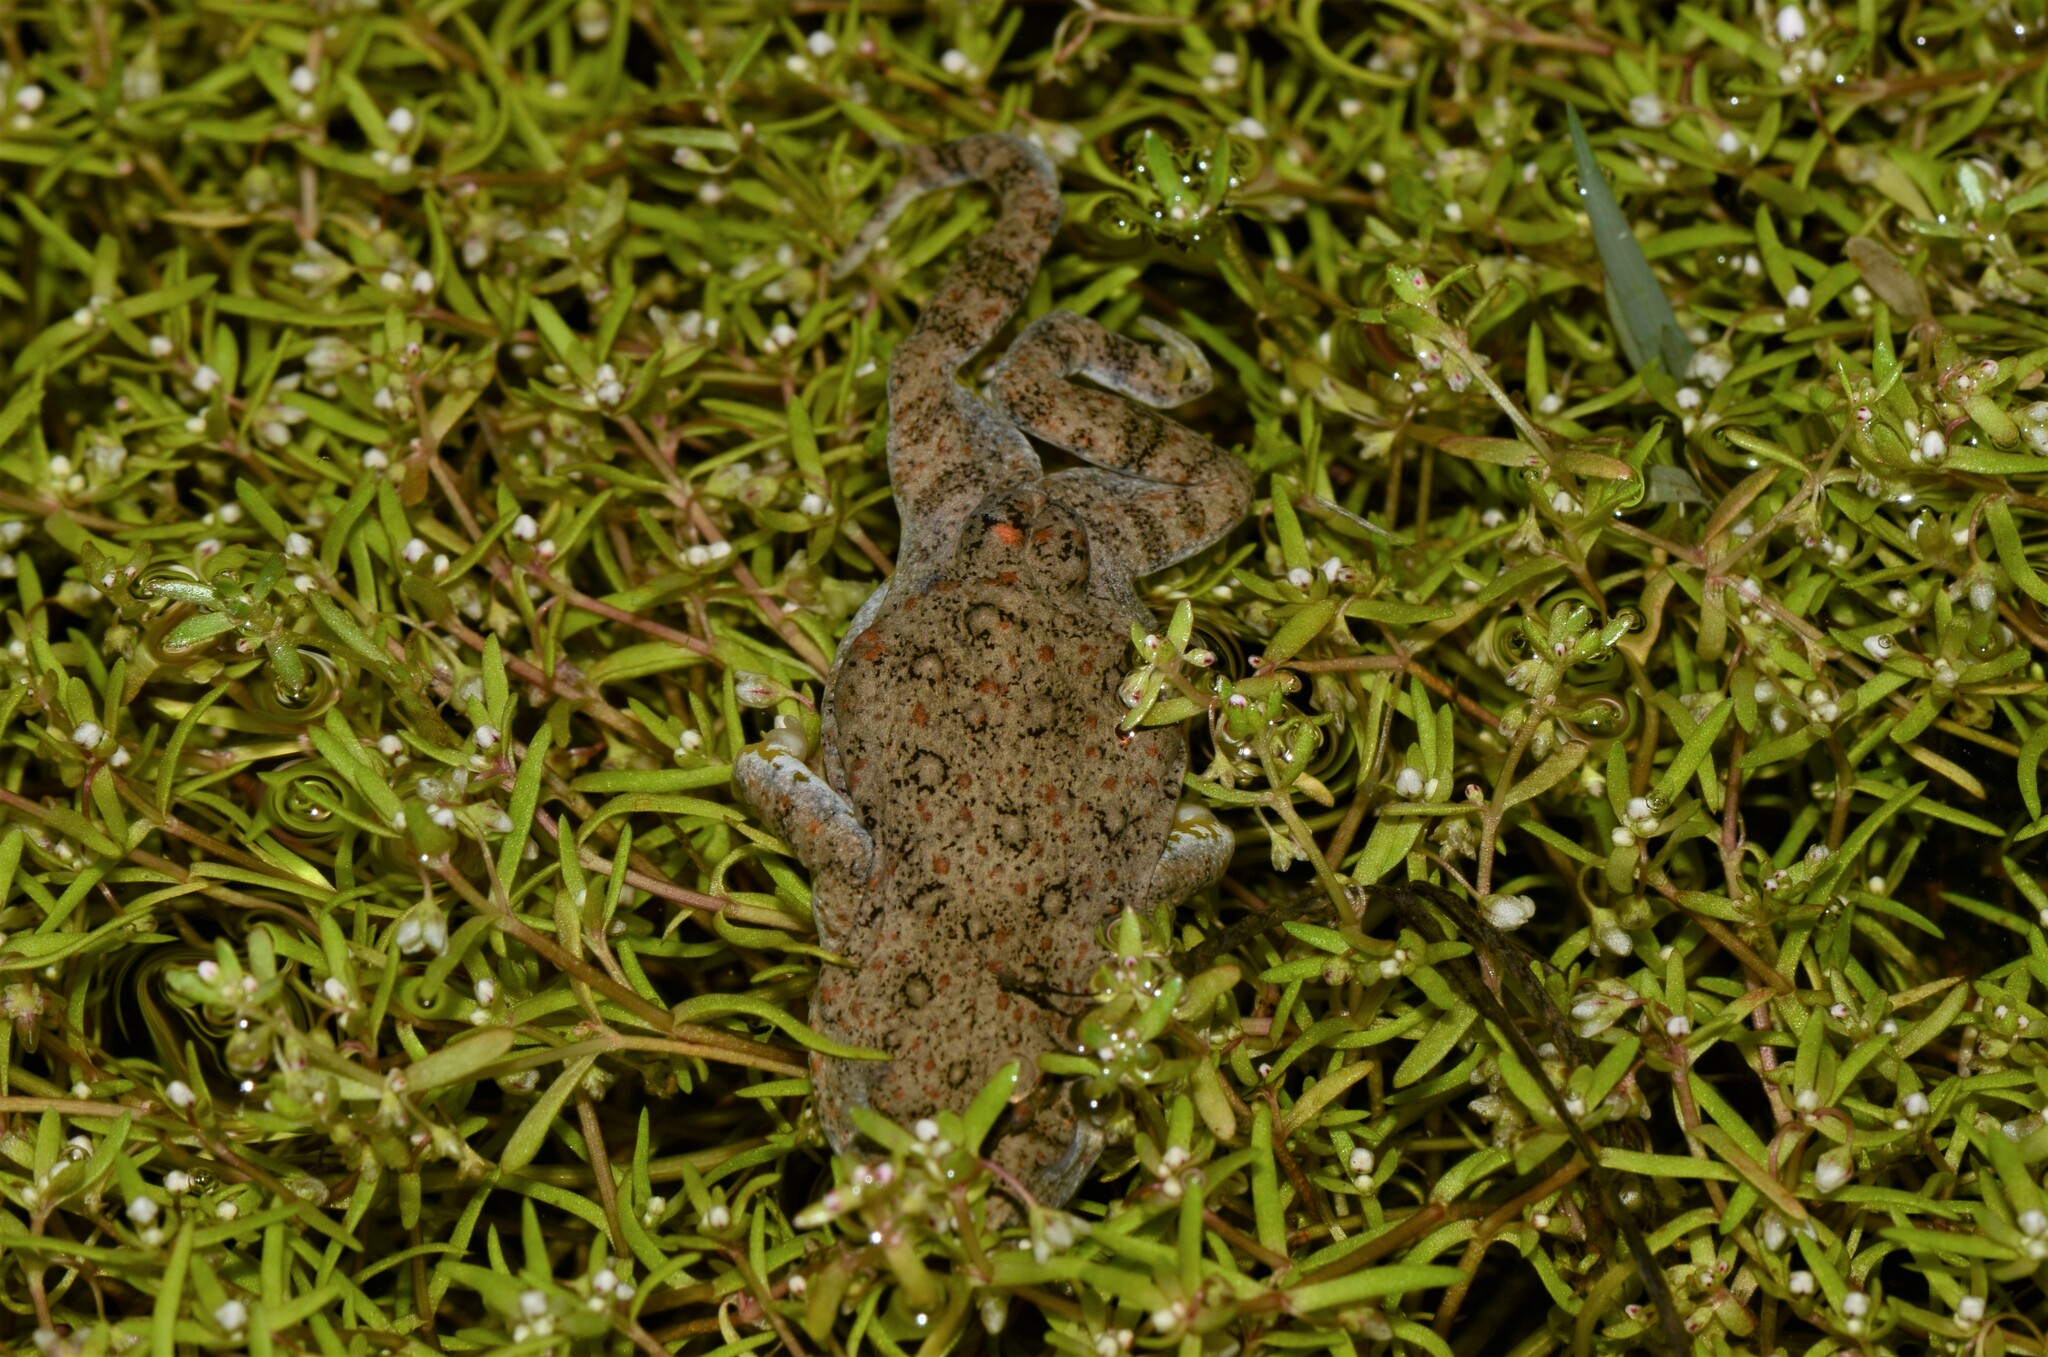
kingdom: Animalia
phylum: Chordata
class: Amphibia
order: Anura
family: Pyxicephalidae
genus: Cacosternum
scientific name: Cacosternum capense
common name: Cape dainty frog
